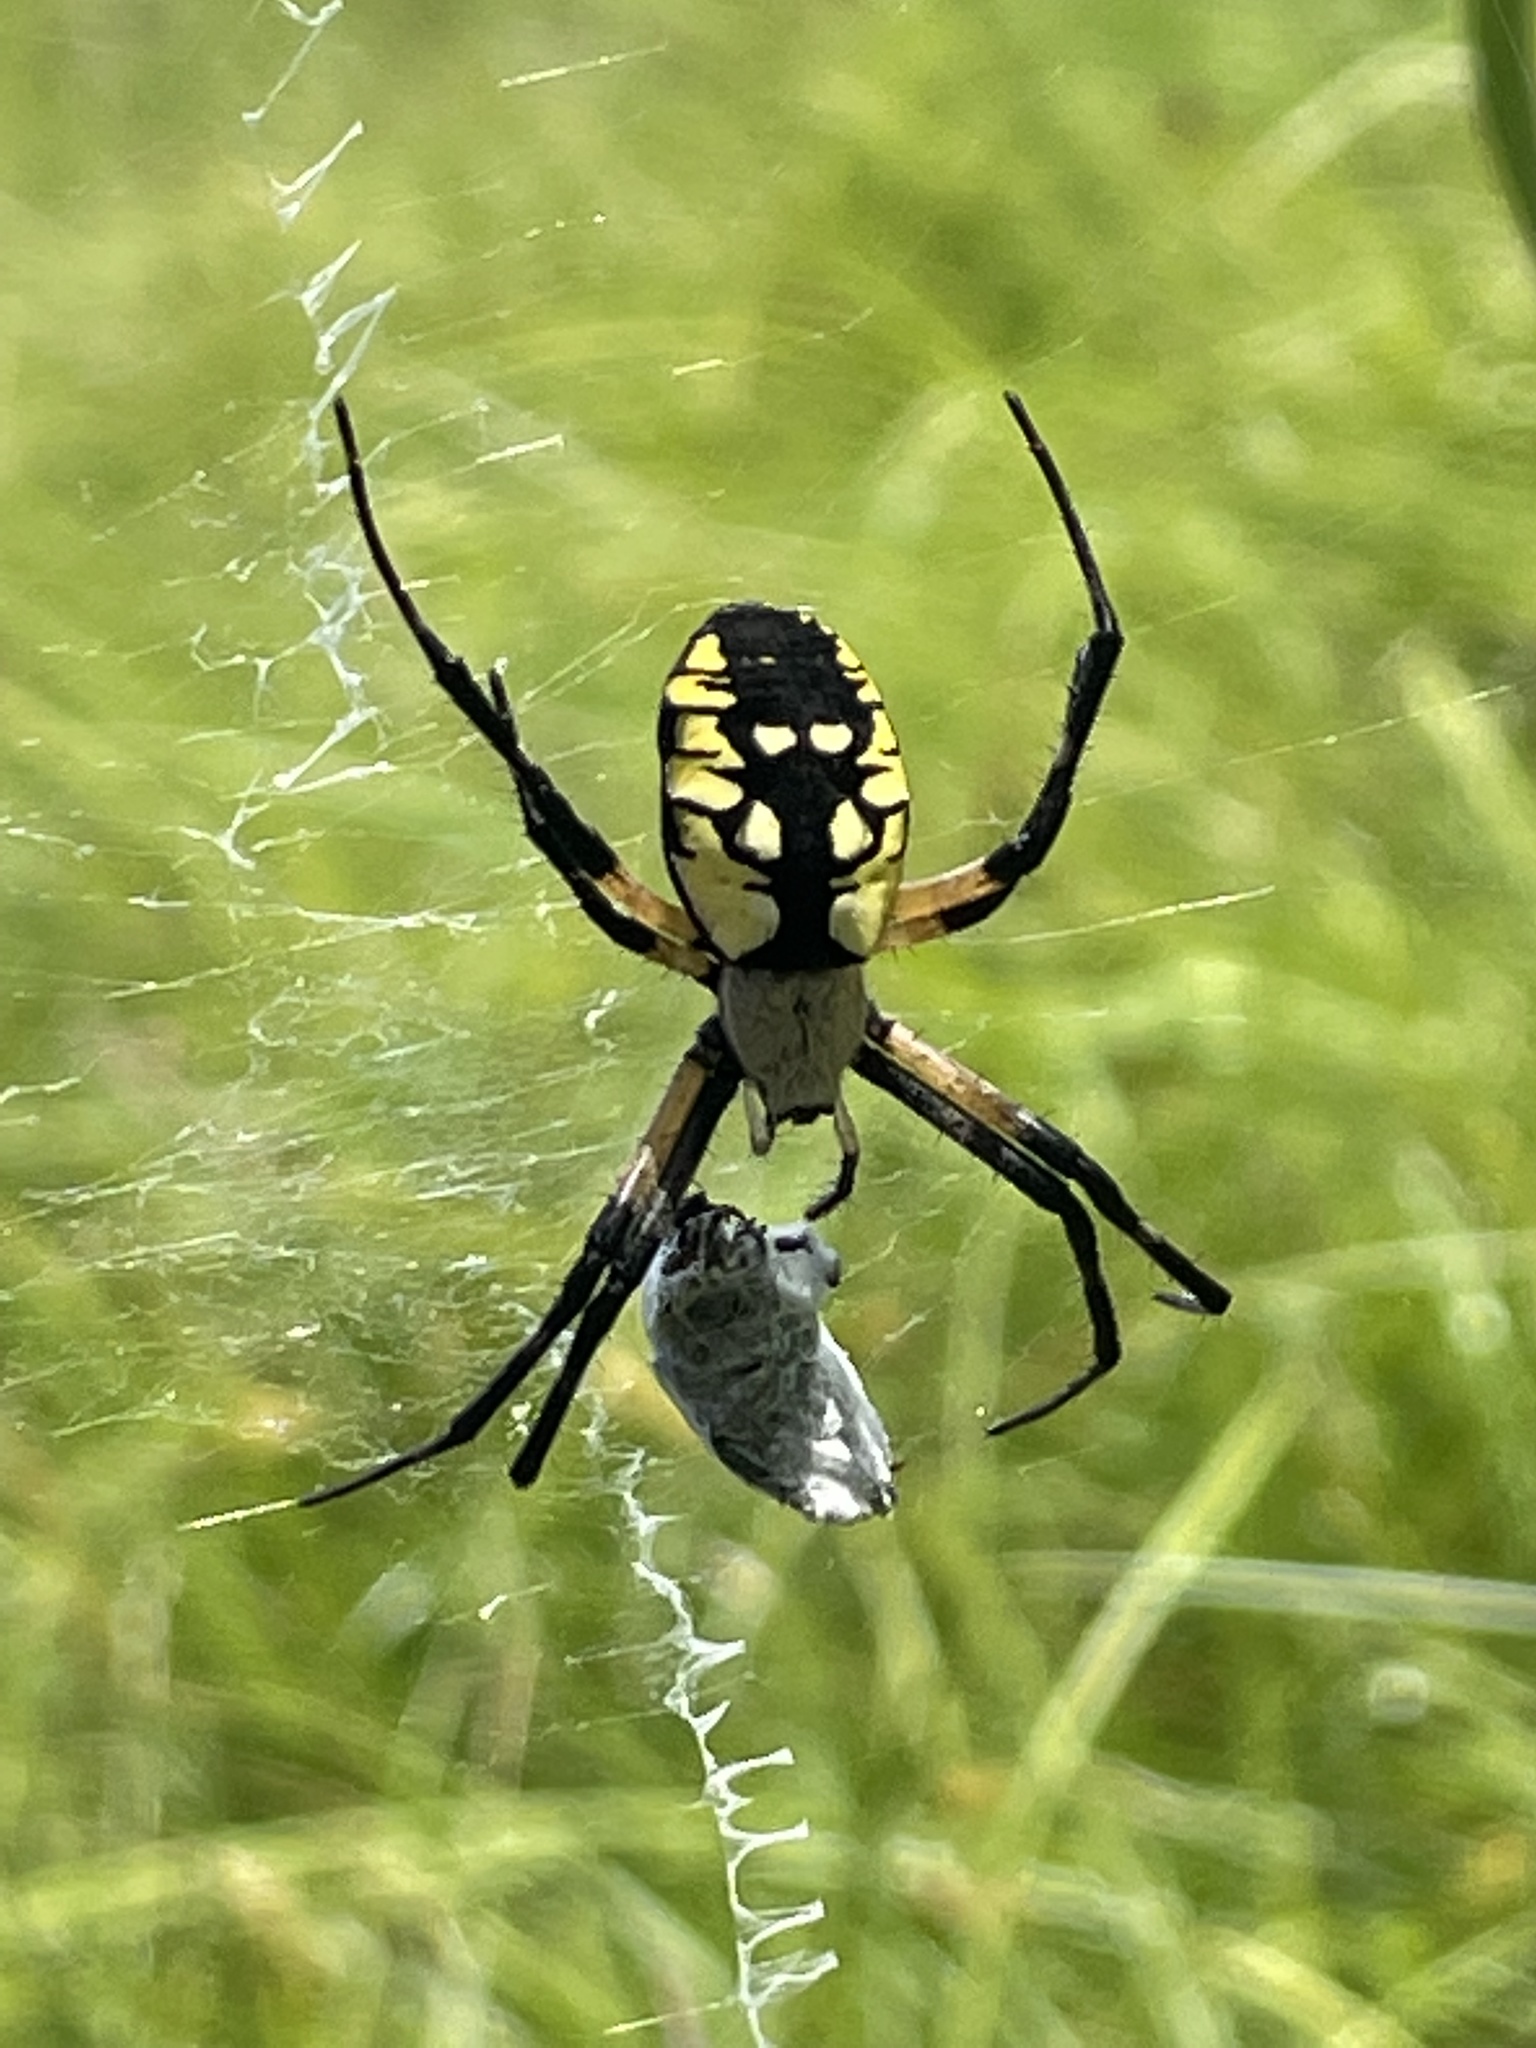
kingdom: Animalia
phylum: Arthropoda
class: Arachnida
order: Araneae
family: Araneidae
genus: Argiope
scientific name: Argiope aurantia
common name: Orb weavers
